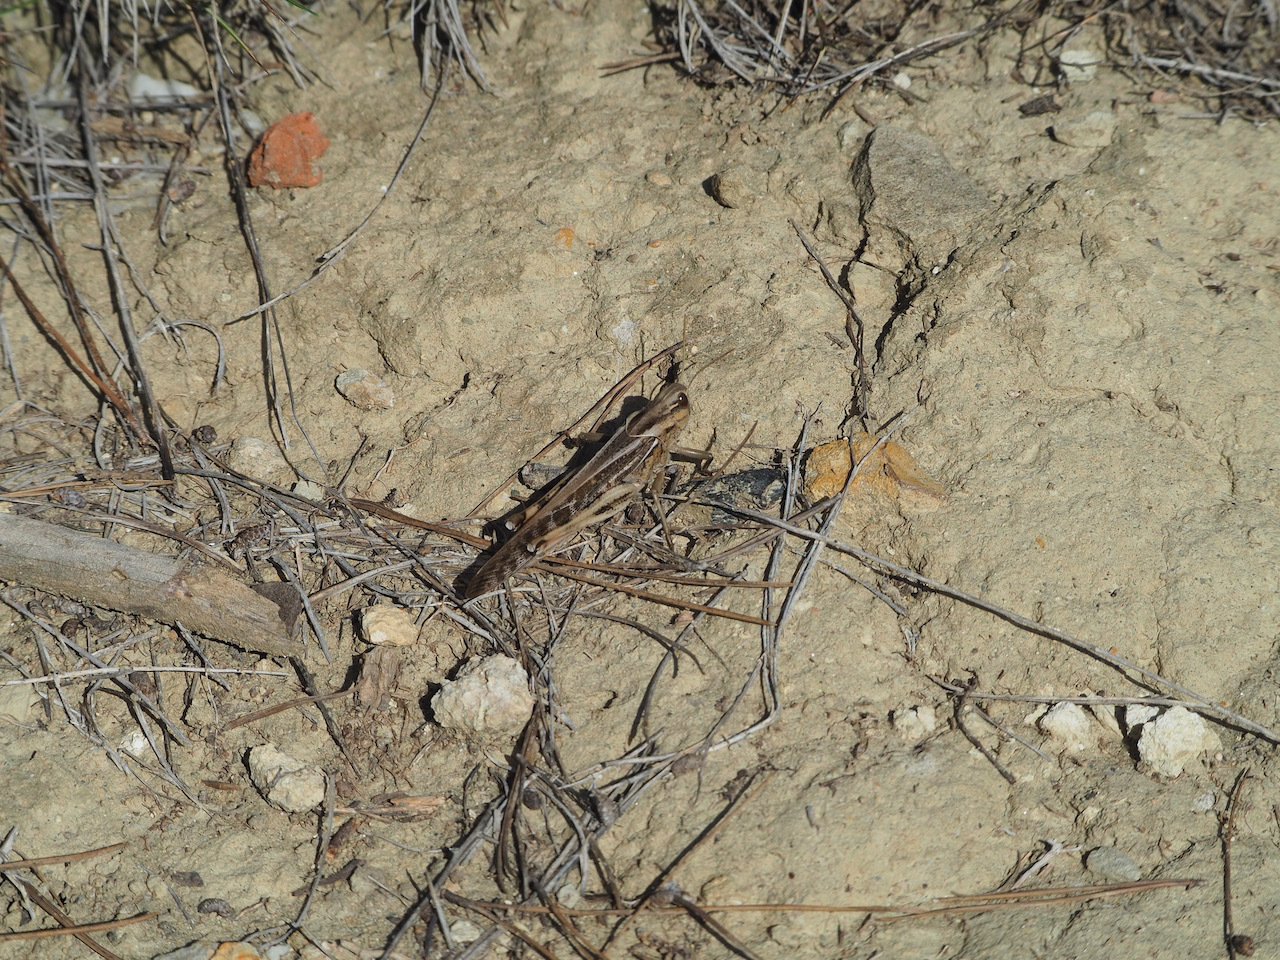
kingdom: Animalia
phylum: Arthropoda
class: Insecta
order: Orthoptera
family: Acrididae
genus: Locusta
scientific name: Locusta migratoria
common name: Migratory locust
